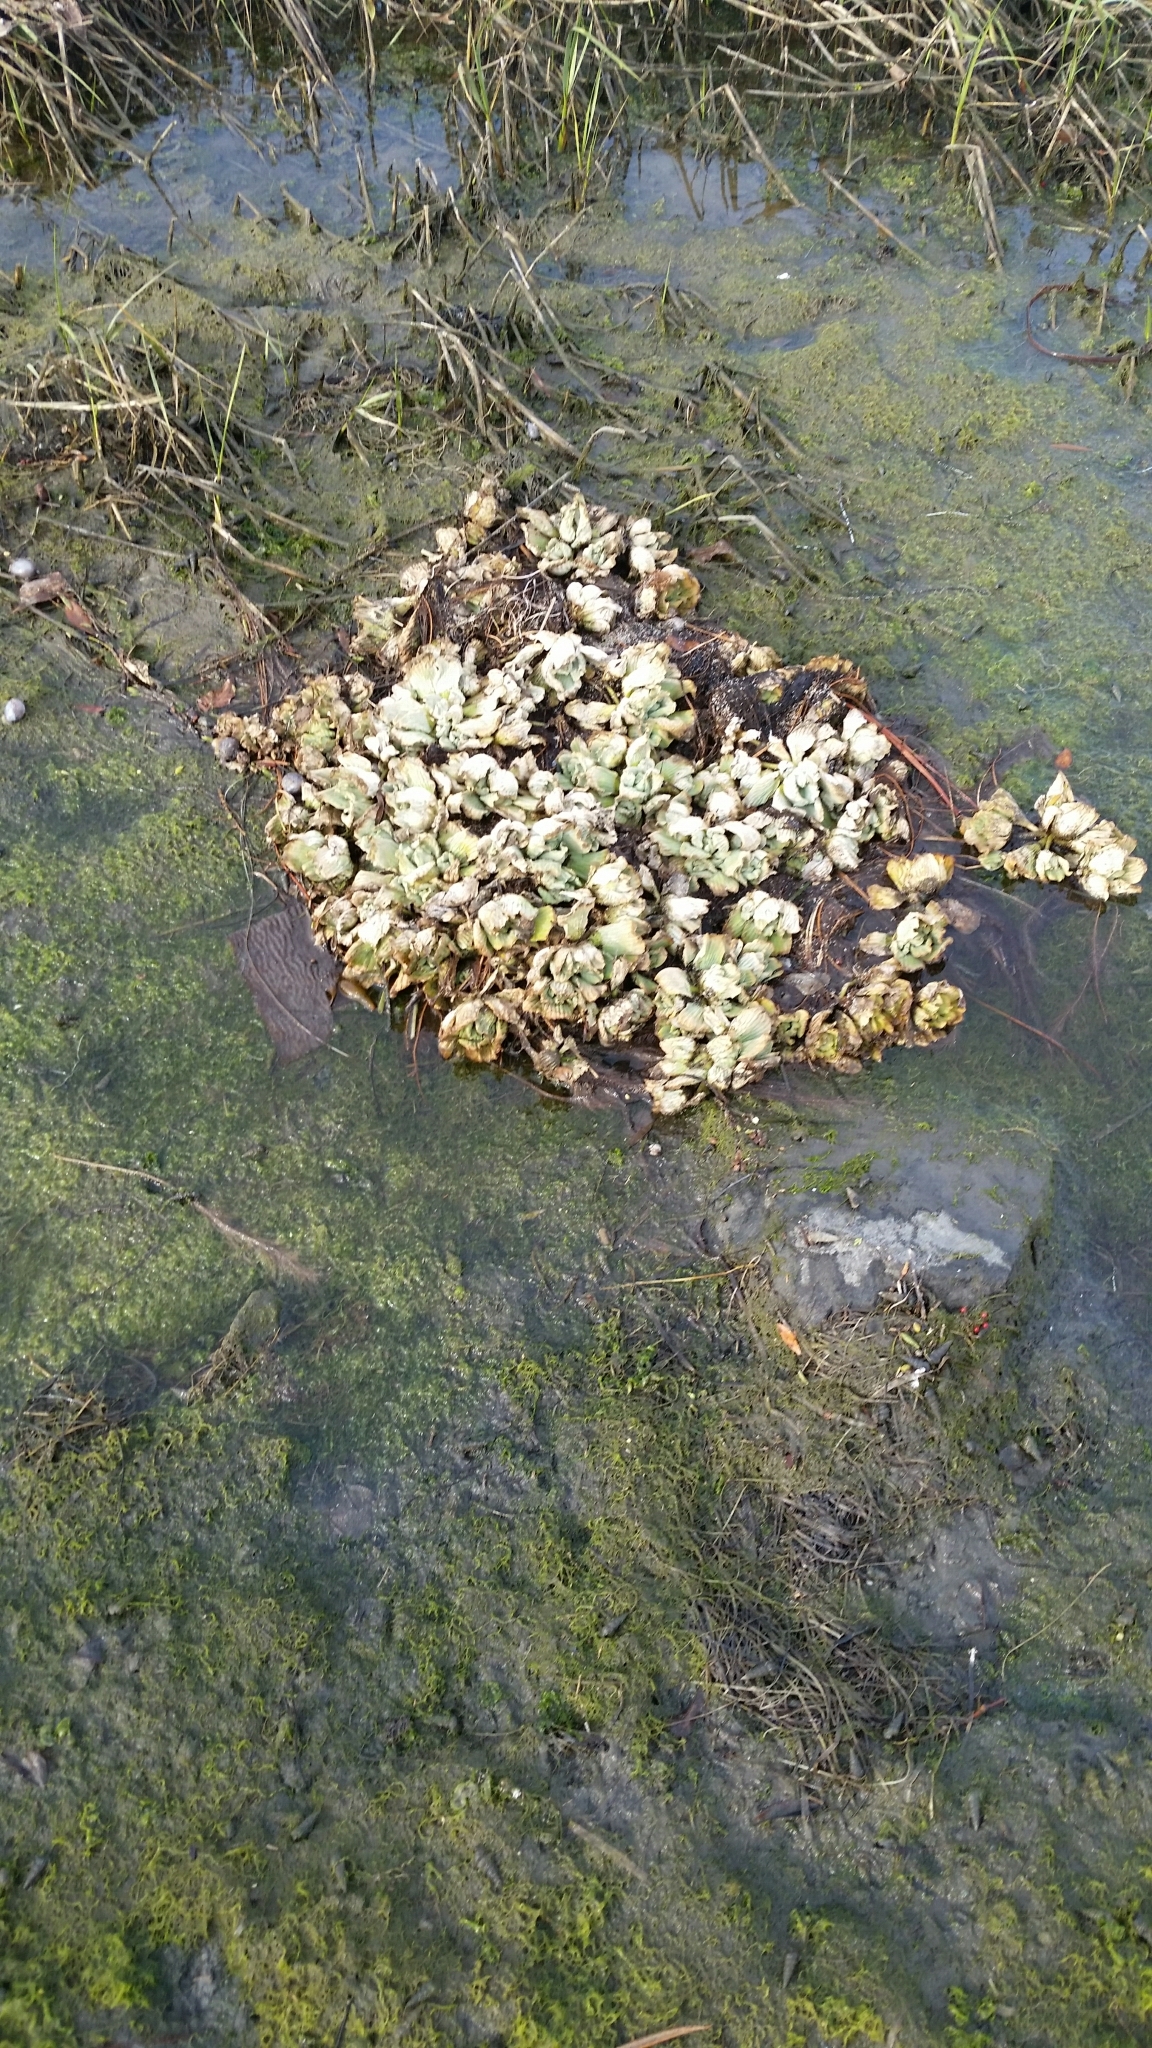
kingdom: Plantae
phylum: Tracheophyta
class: Liliopsida
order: Alismatales
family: Araceae
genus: Pistia
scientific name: Pistia stratiotes
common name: Water lettuce
